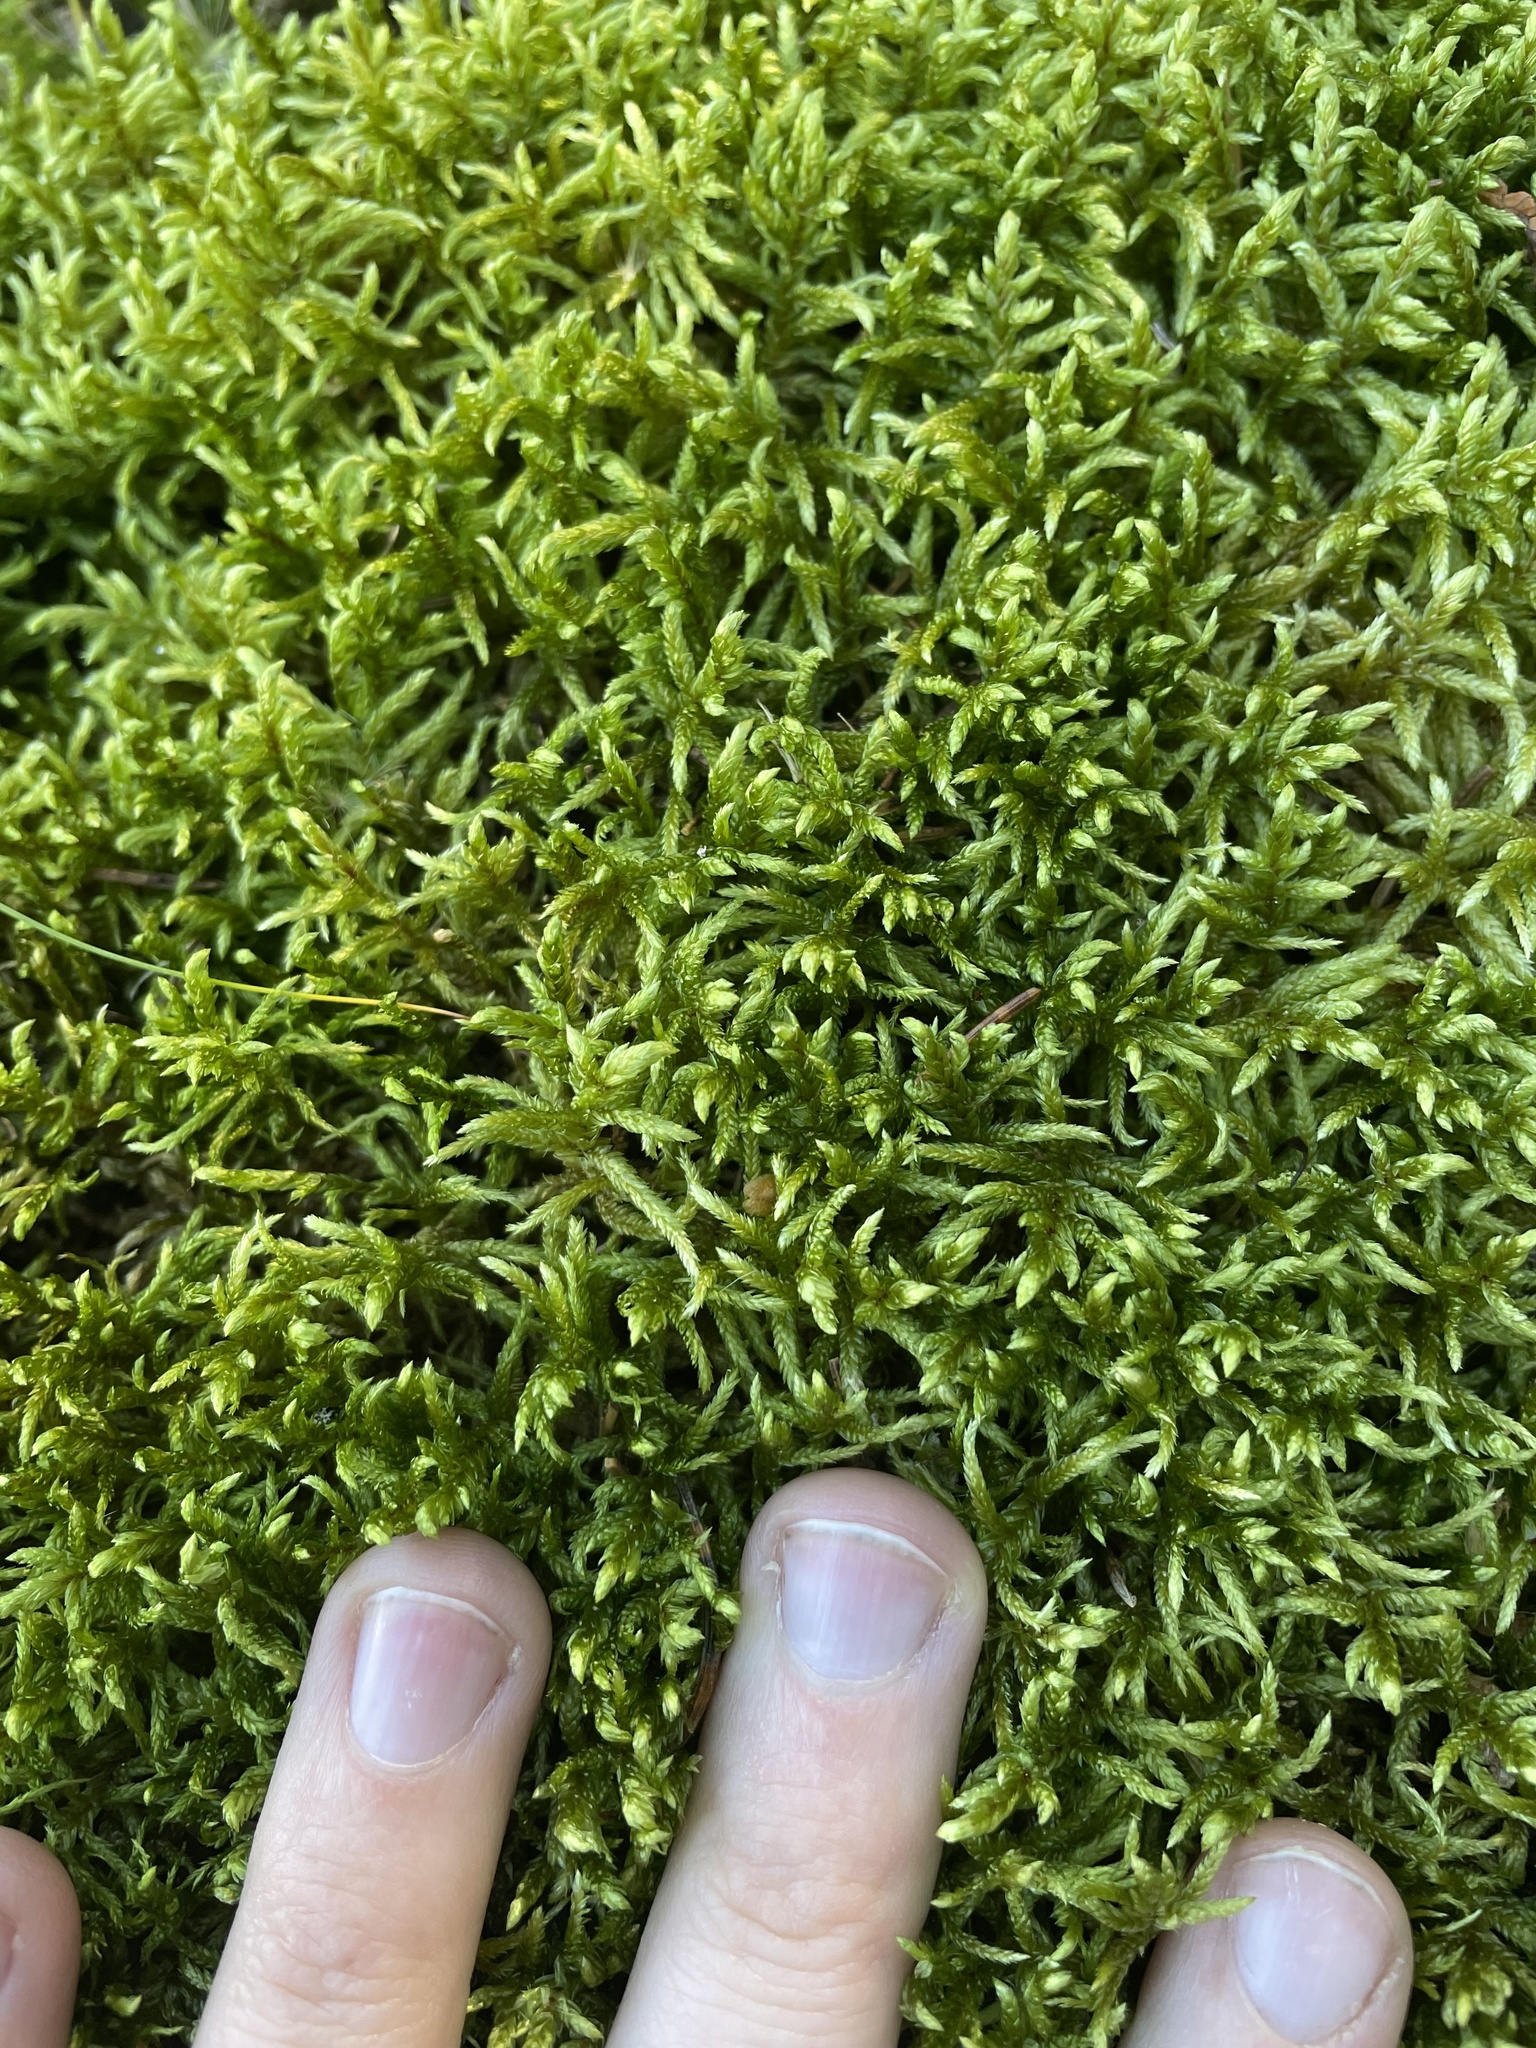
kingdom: Plantae
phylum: Bryophyta
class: Bryopsida
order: Hypnales
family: Hylocomiaceae
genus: Pleurozium
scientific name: Pleurozium schreberi
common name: Red-stemmed feather moss
